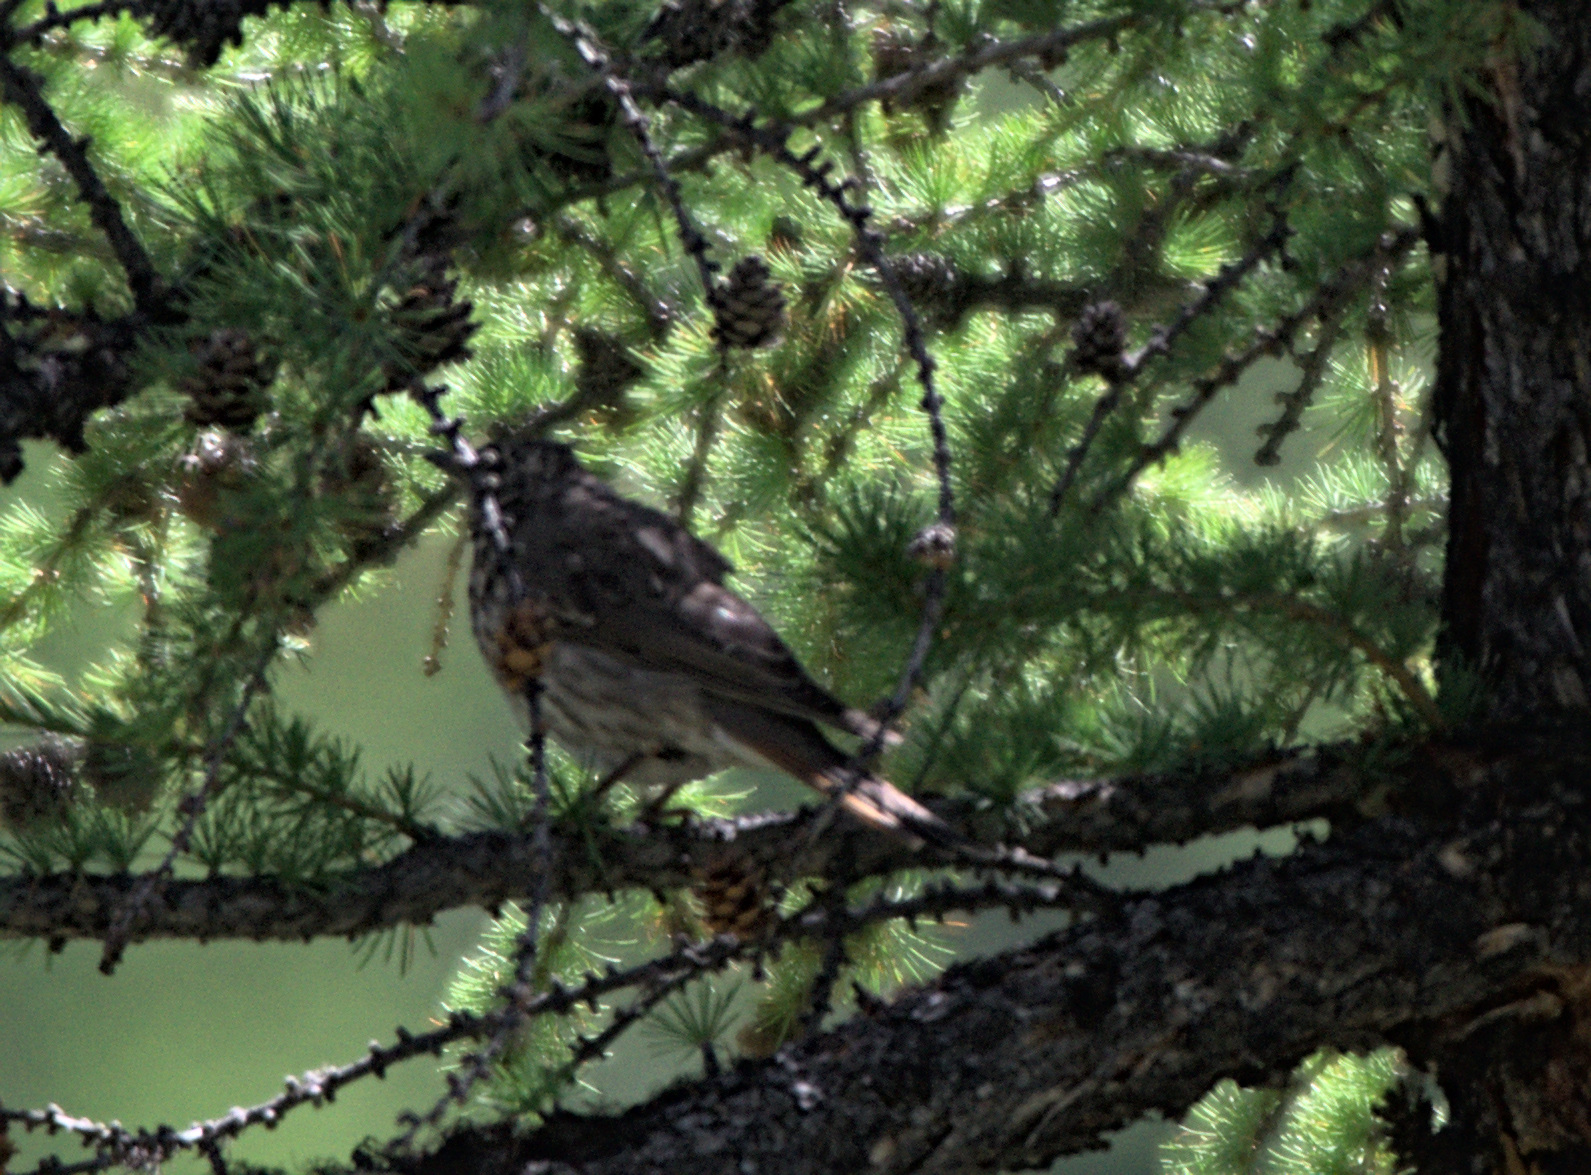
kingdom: Animalia
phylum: Chordata
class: Aves
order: Passeriformes
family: Turdidae
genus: Turdus
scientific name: Turdus atrogularis
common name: Black-throated thrush
